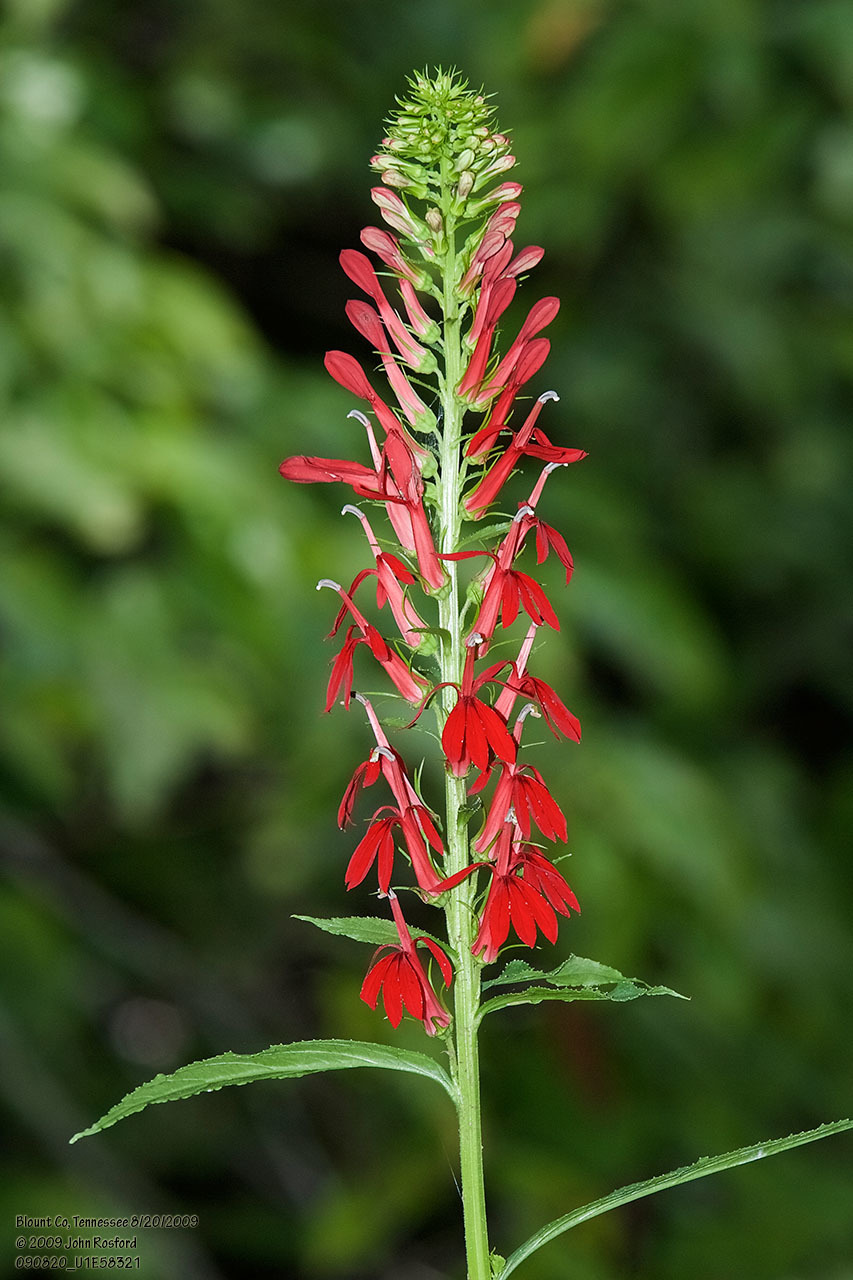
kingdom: Plantae
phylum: Tracheophyta
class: Magnoliopsida
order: Asterales
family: Campanulaceae
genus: Lobelia
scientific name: Lobelia cardinalis
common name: Cardinal flower
